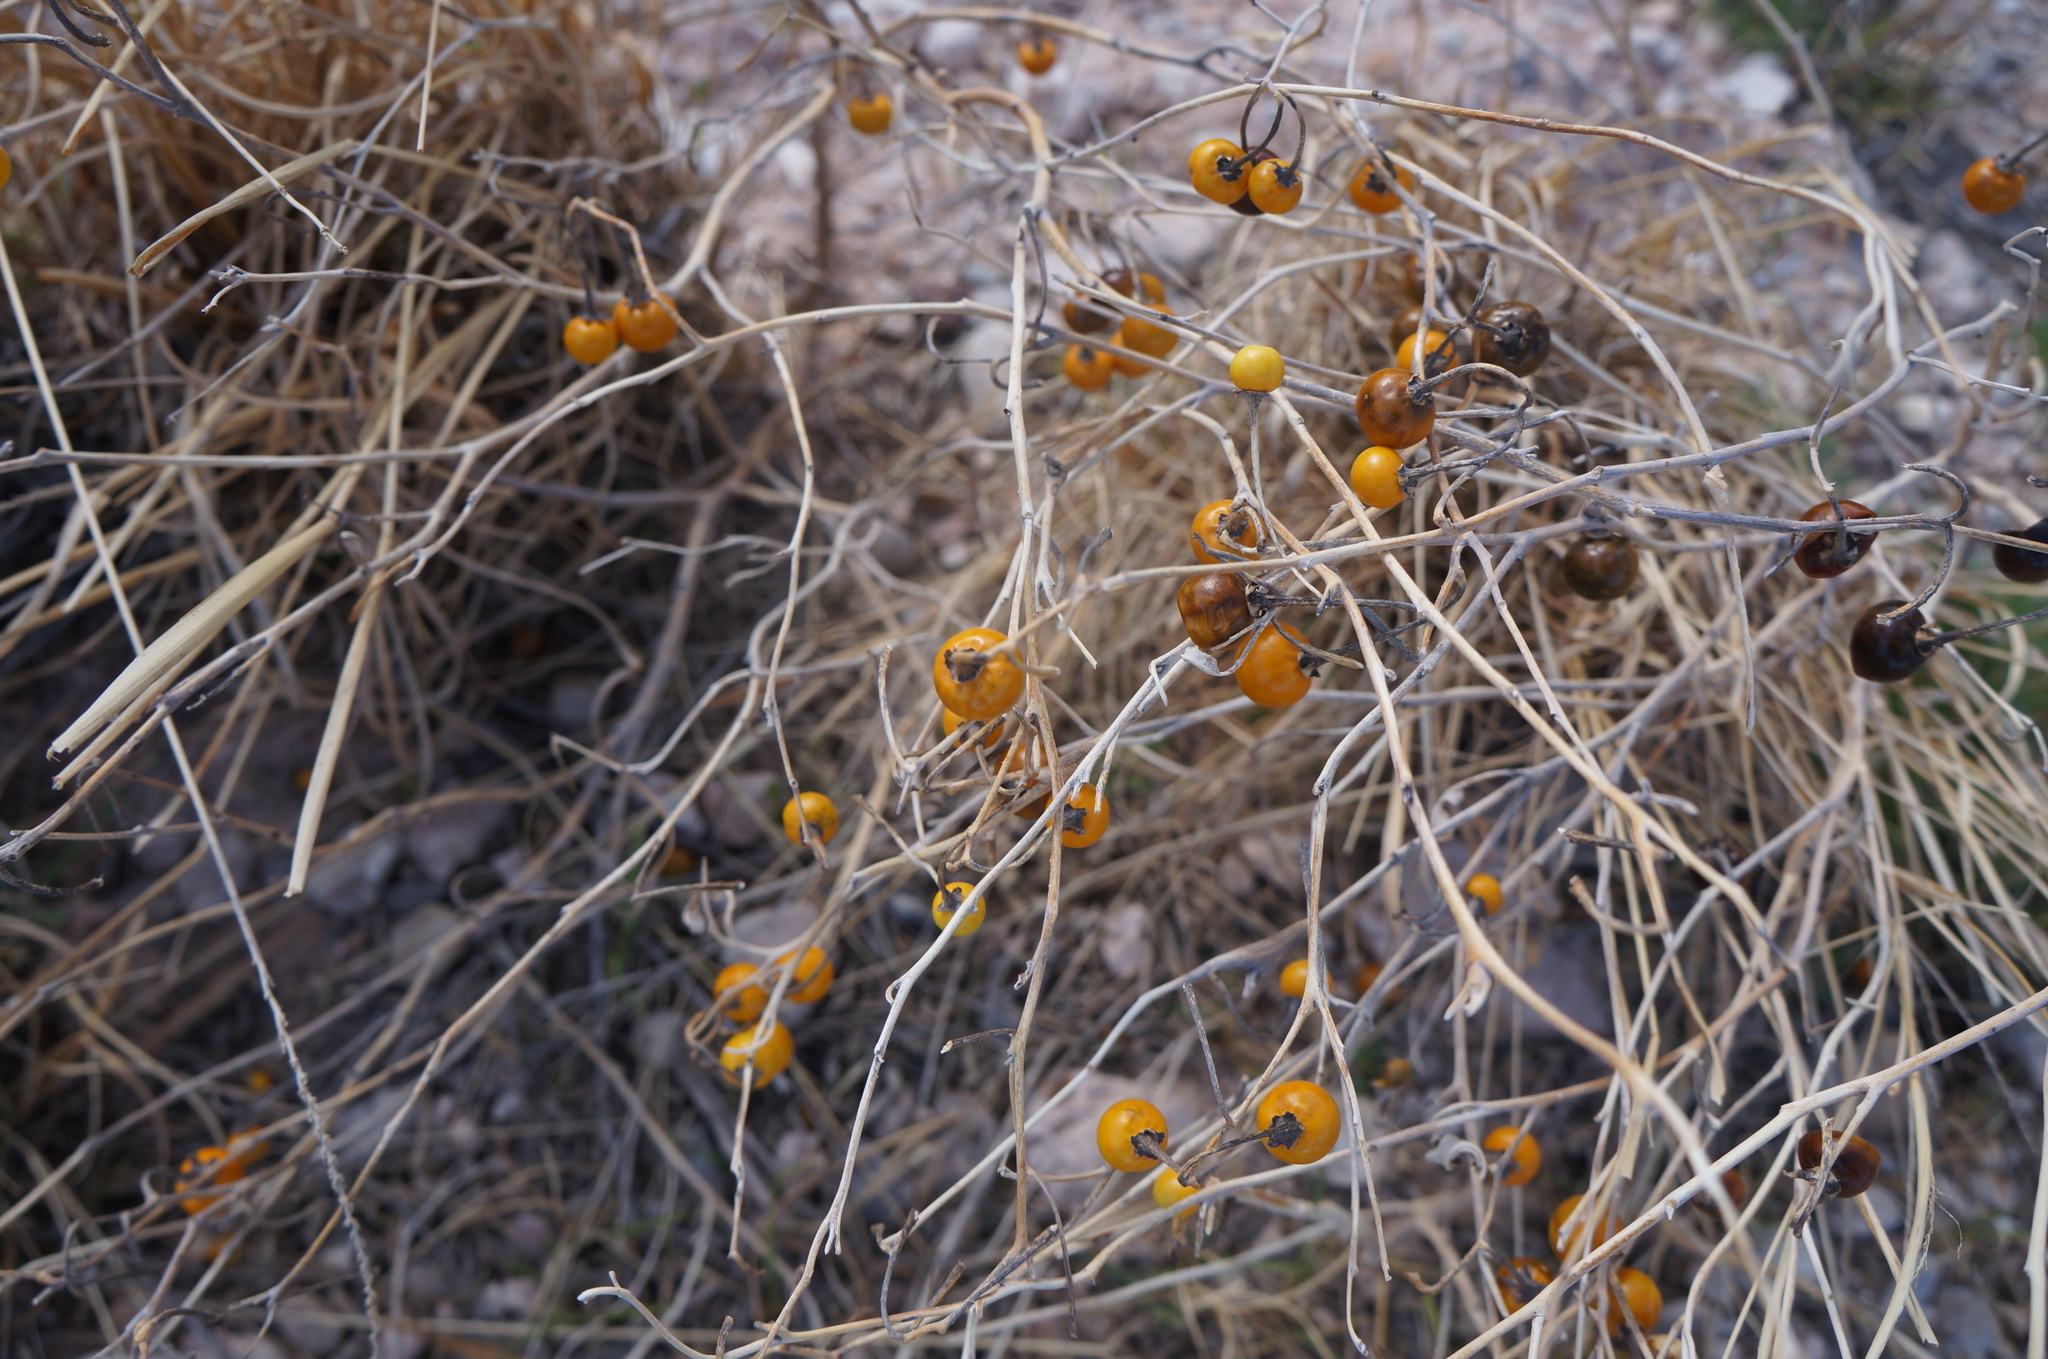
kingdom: Plantae
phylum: Tracheophyta
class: Magnoliopsida
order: Solanales
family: Solanaceae
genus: Solanum
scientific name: Solanum elaeagnifolium
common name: Silverleaf nightshade
